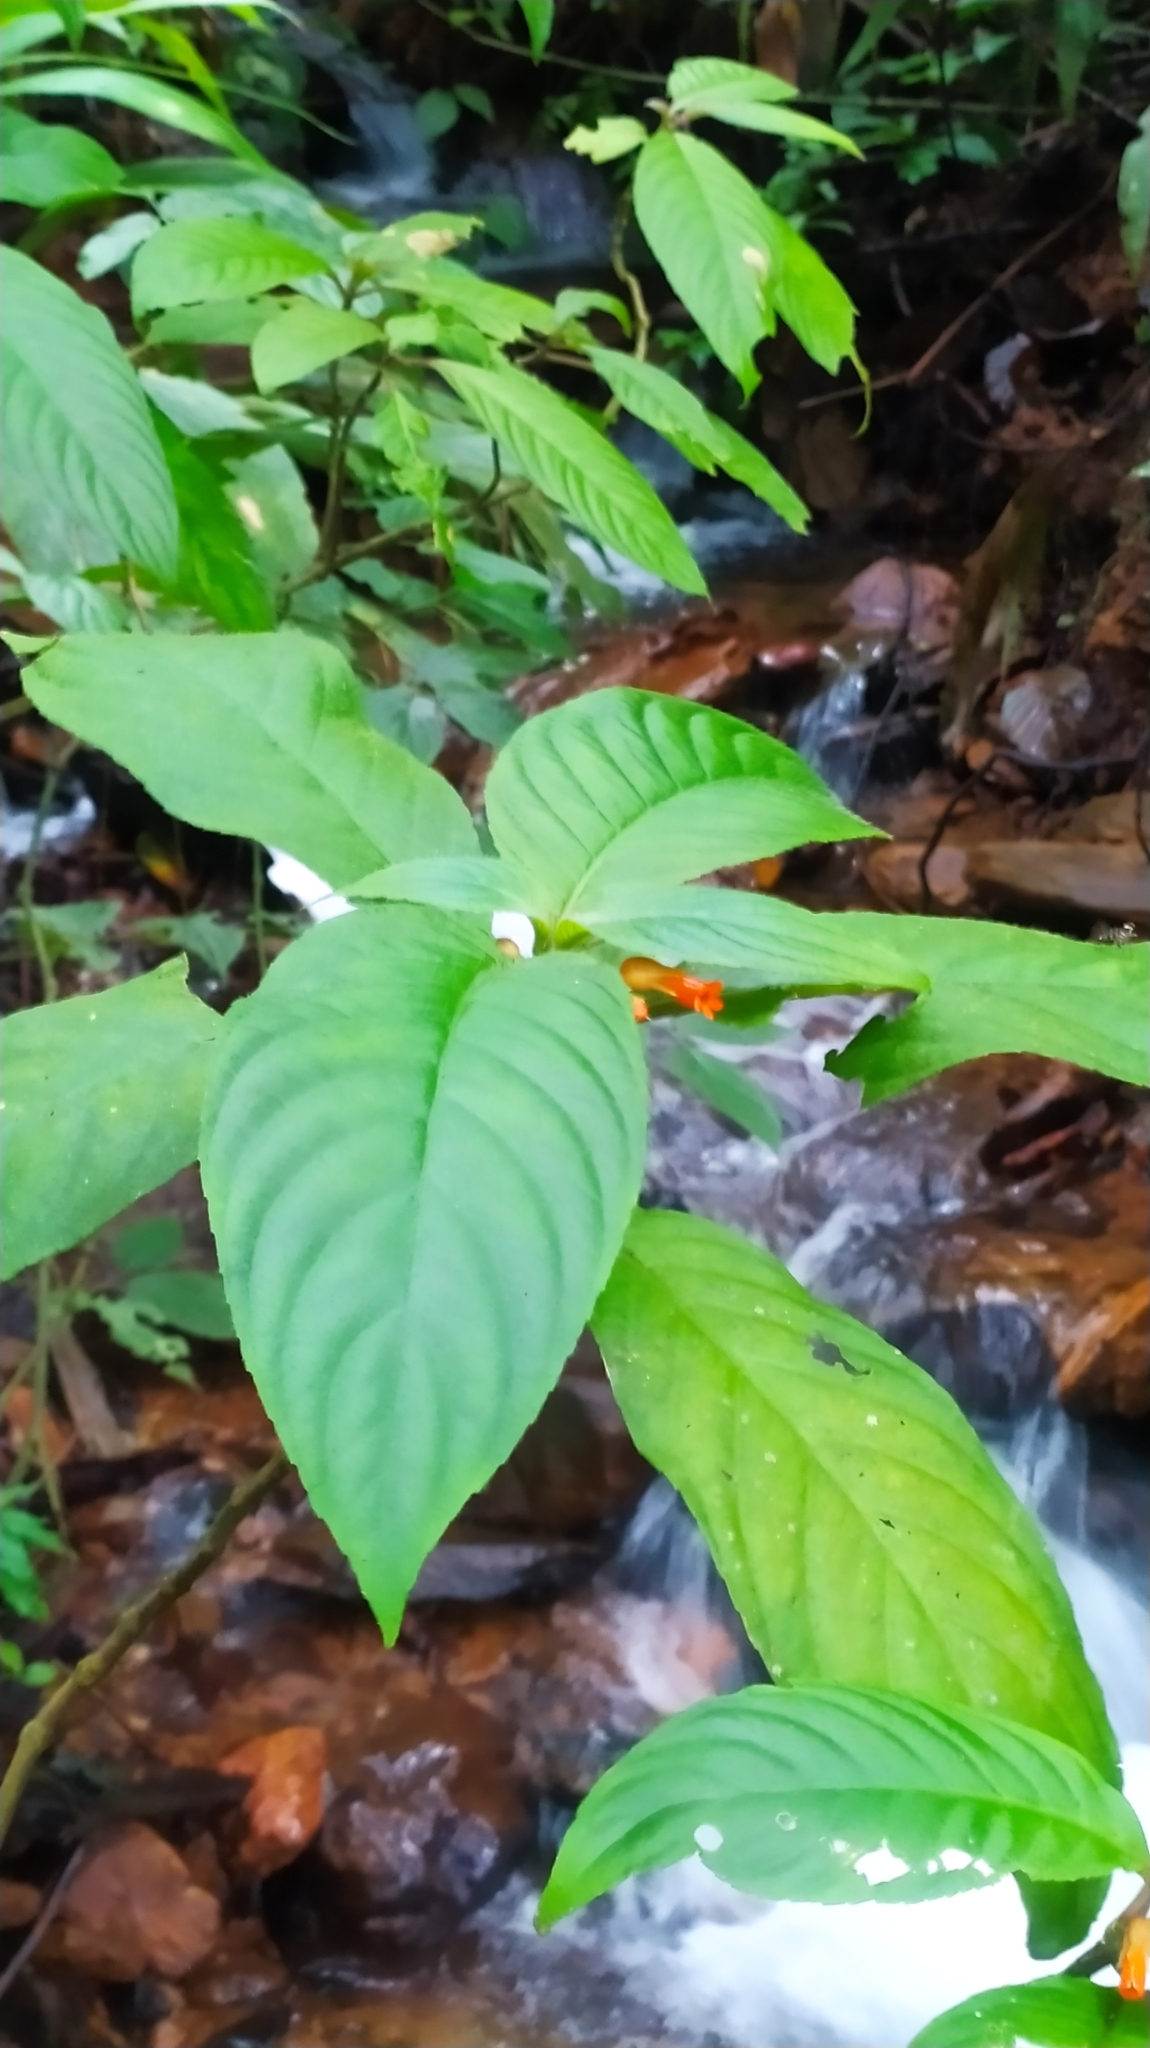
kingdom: Plantae
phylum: Tracheophyta
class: Magnoliopsida
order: Lamiales
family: Gesneriaceae
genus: Besleria
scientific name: Besleria patrisii
